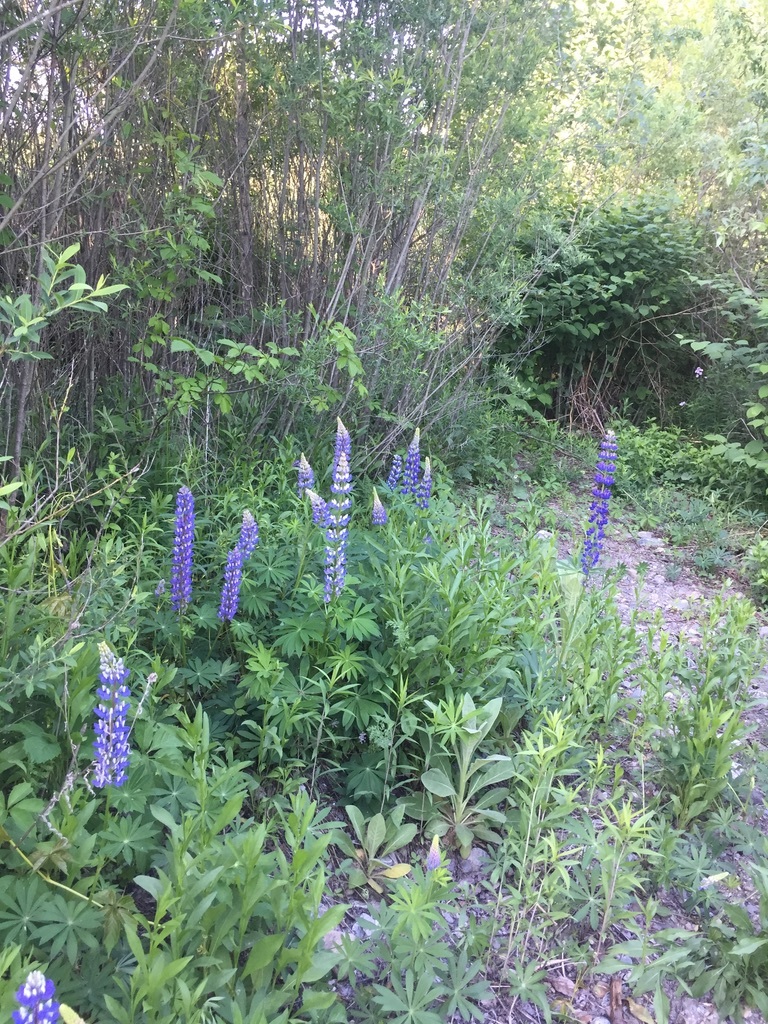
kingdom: Plantae
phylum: Tracheophyta
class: Magnoliopsida
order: Fabales
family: Fabaceae
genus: Lupinus
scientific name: Lupinus polyphyllus
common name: Garden lupin
